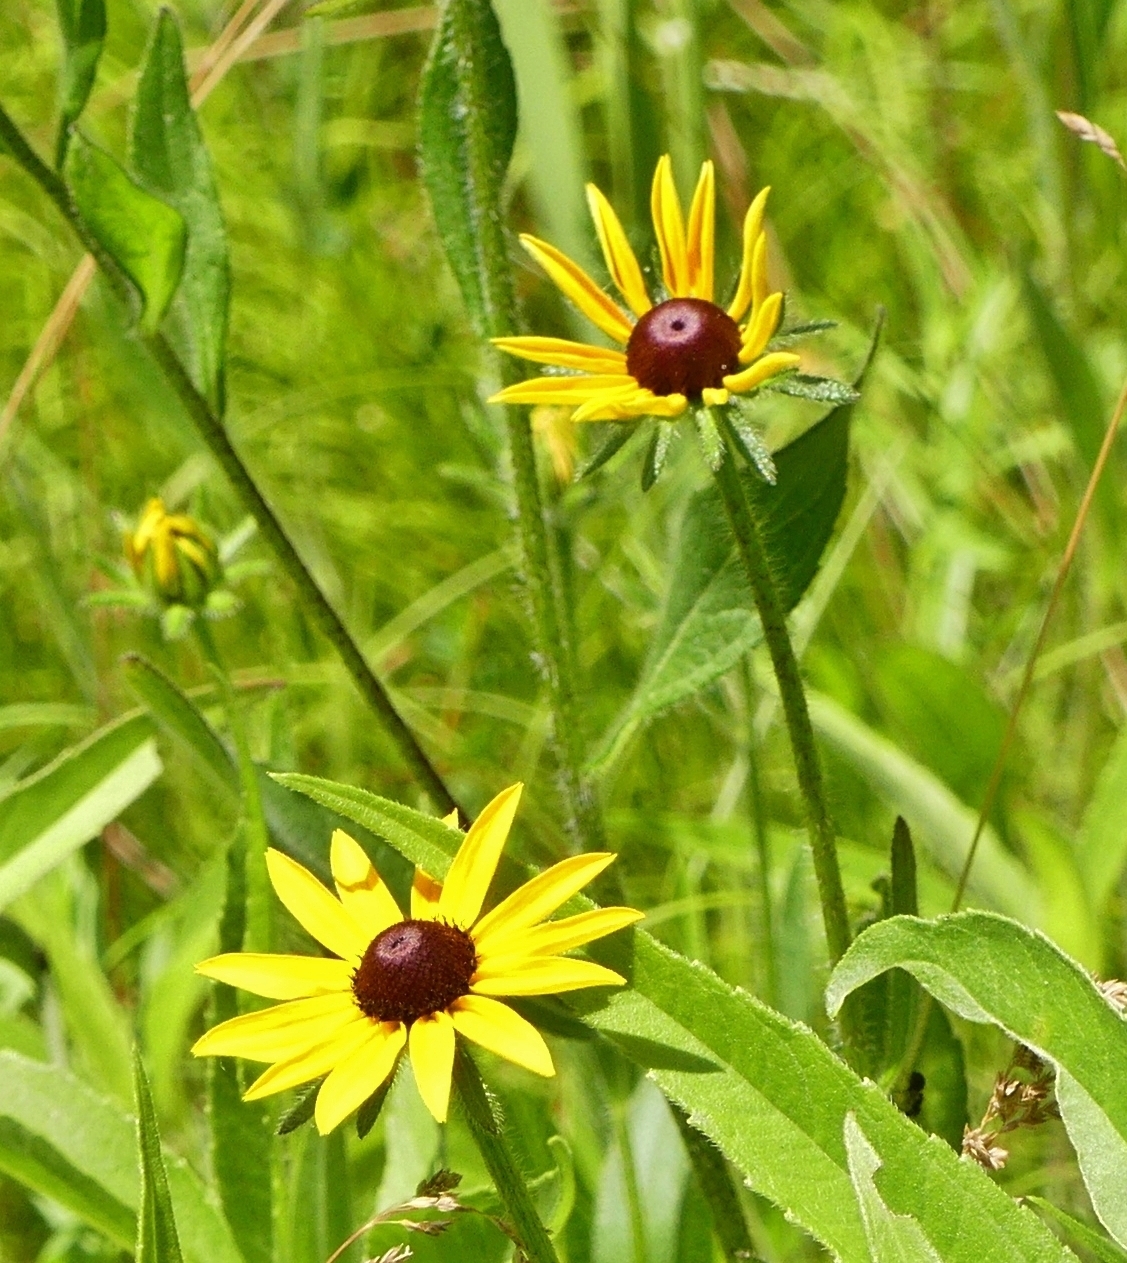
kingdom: Plantae
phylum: Tracheophyta
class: Magnoliopsida
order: Asterales
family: Asteraceae
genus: Rudbeckia
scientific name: Rudbeckia hirta
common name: Black-eyed-susan
